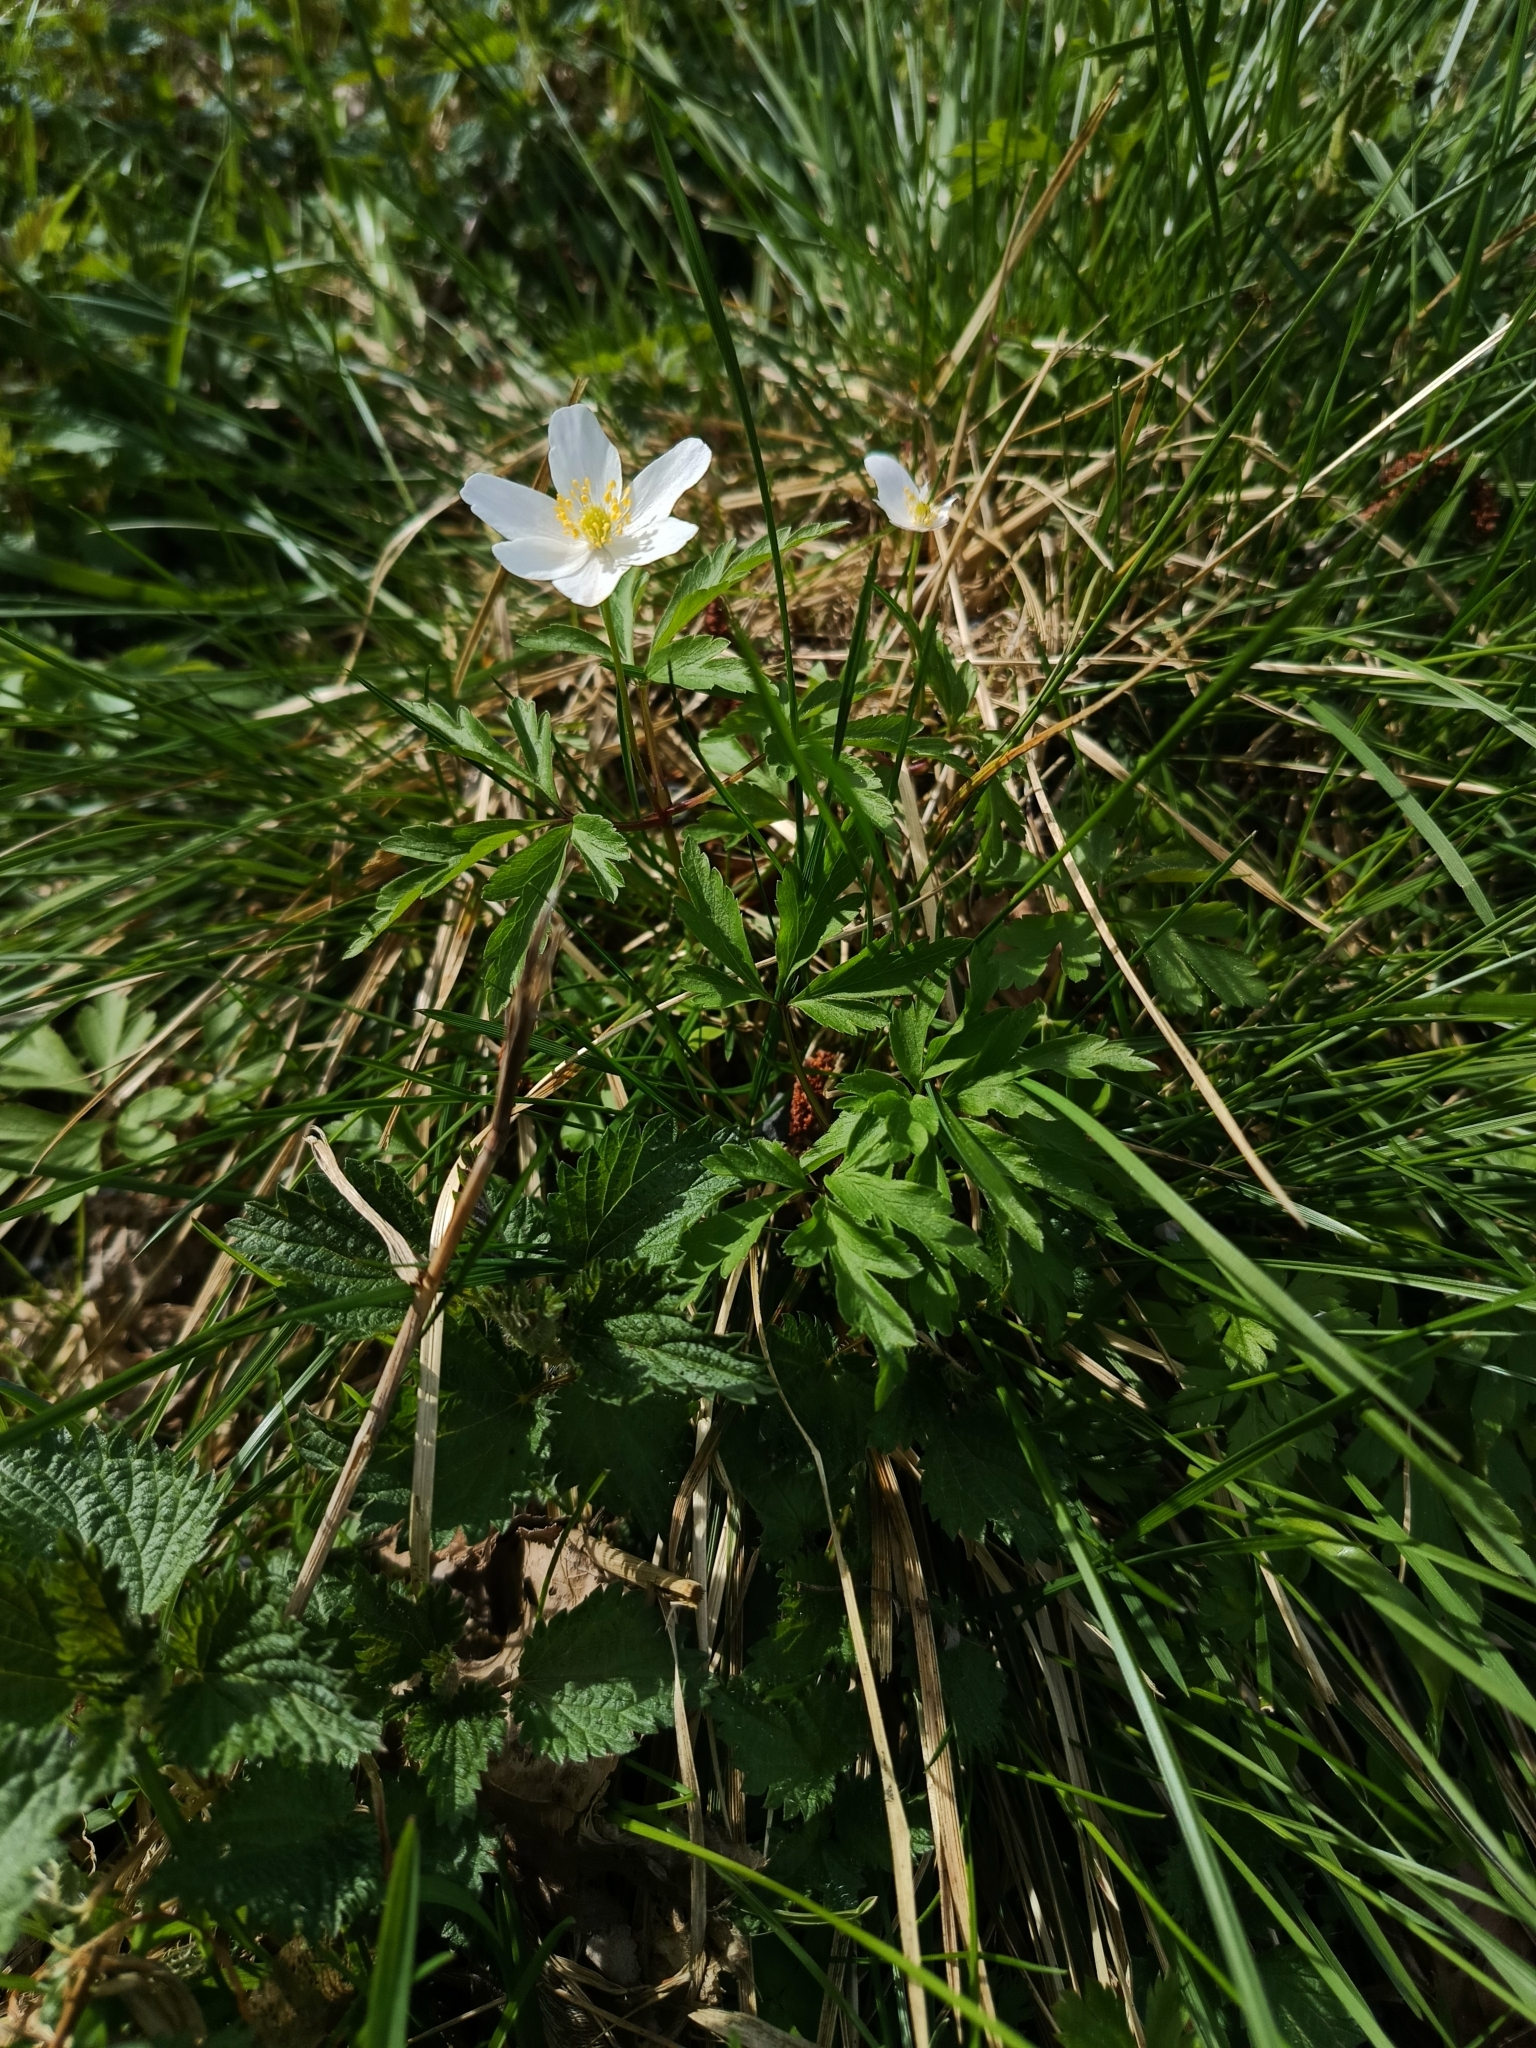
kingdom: Plantae
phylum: Tracheophyta
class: Magnoliopsida
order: Ranunculales
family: Ranunculaceae
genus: Anemone
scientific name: Anemone nemorosa
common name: Wood anemone
